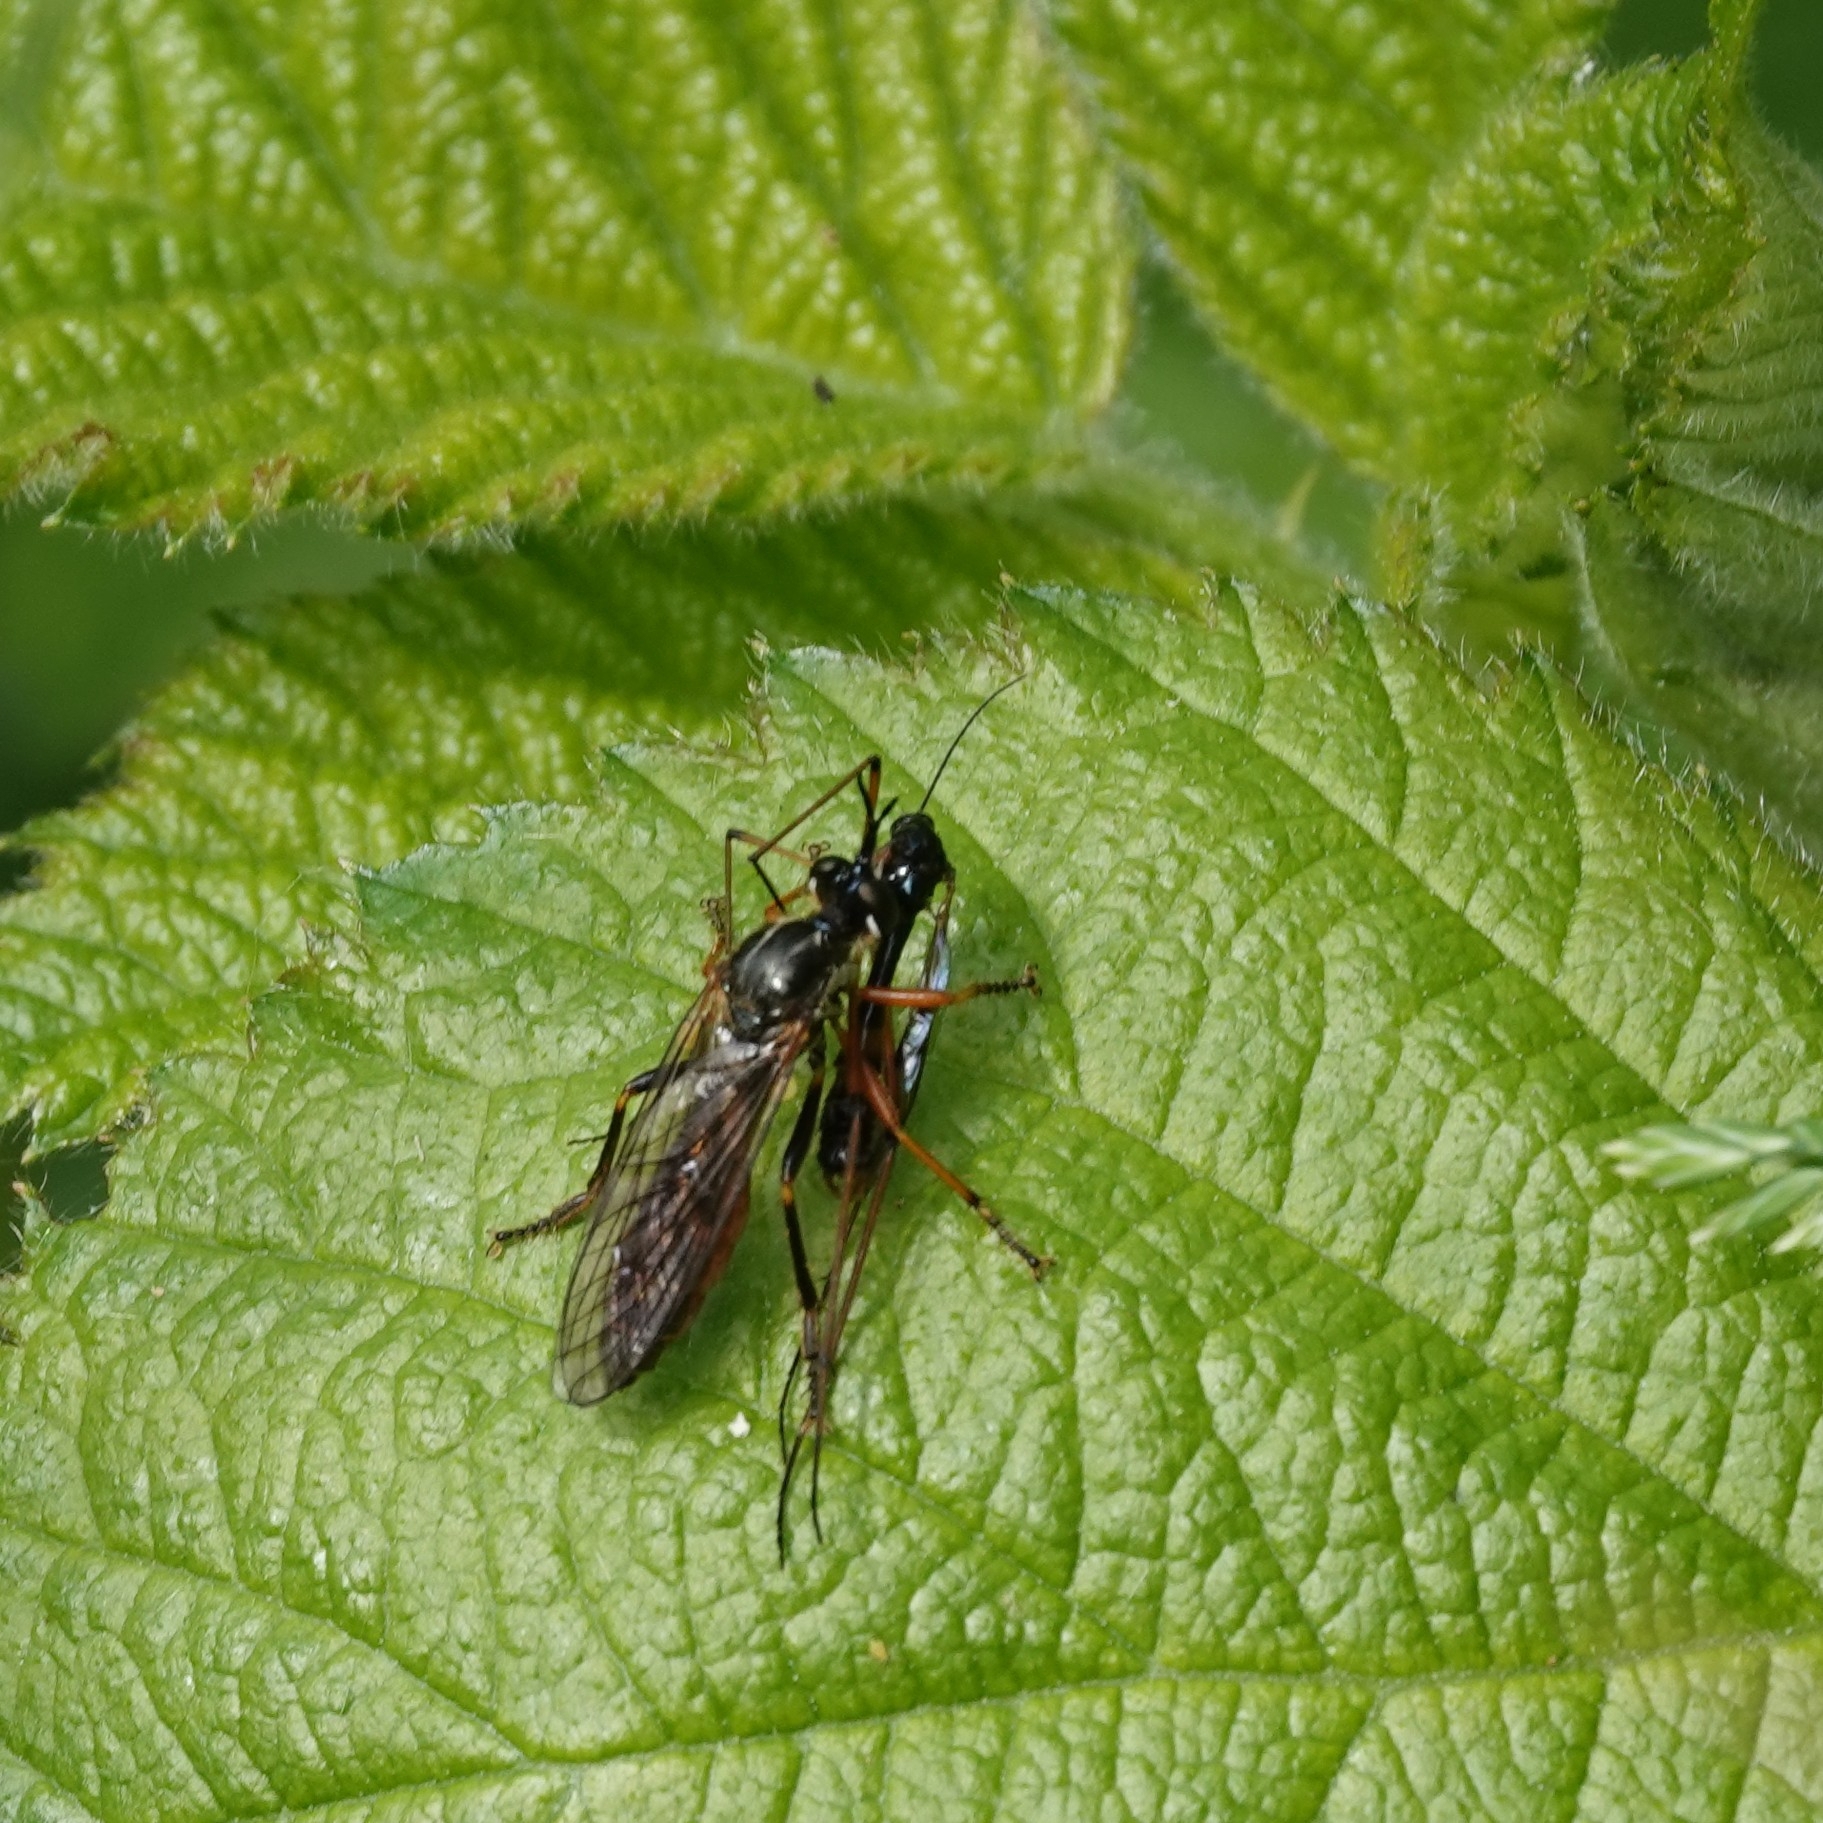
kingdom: Animalia
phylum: Arthropoda
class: Insecta
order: Diptera
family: Asilidae
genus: Dioctria
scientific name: Dioctria rufipes
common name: Common red-legged robberfly
